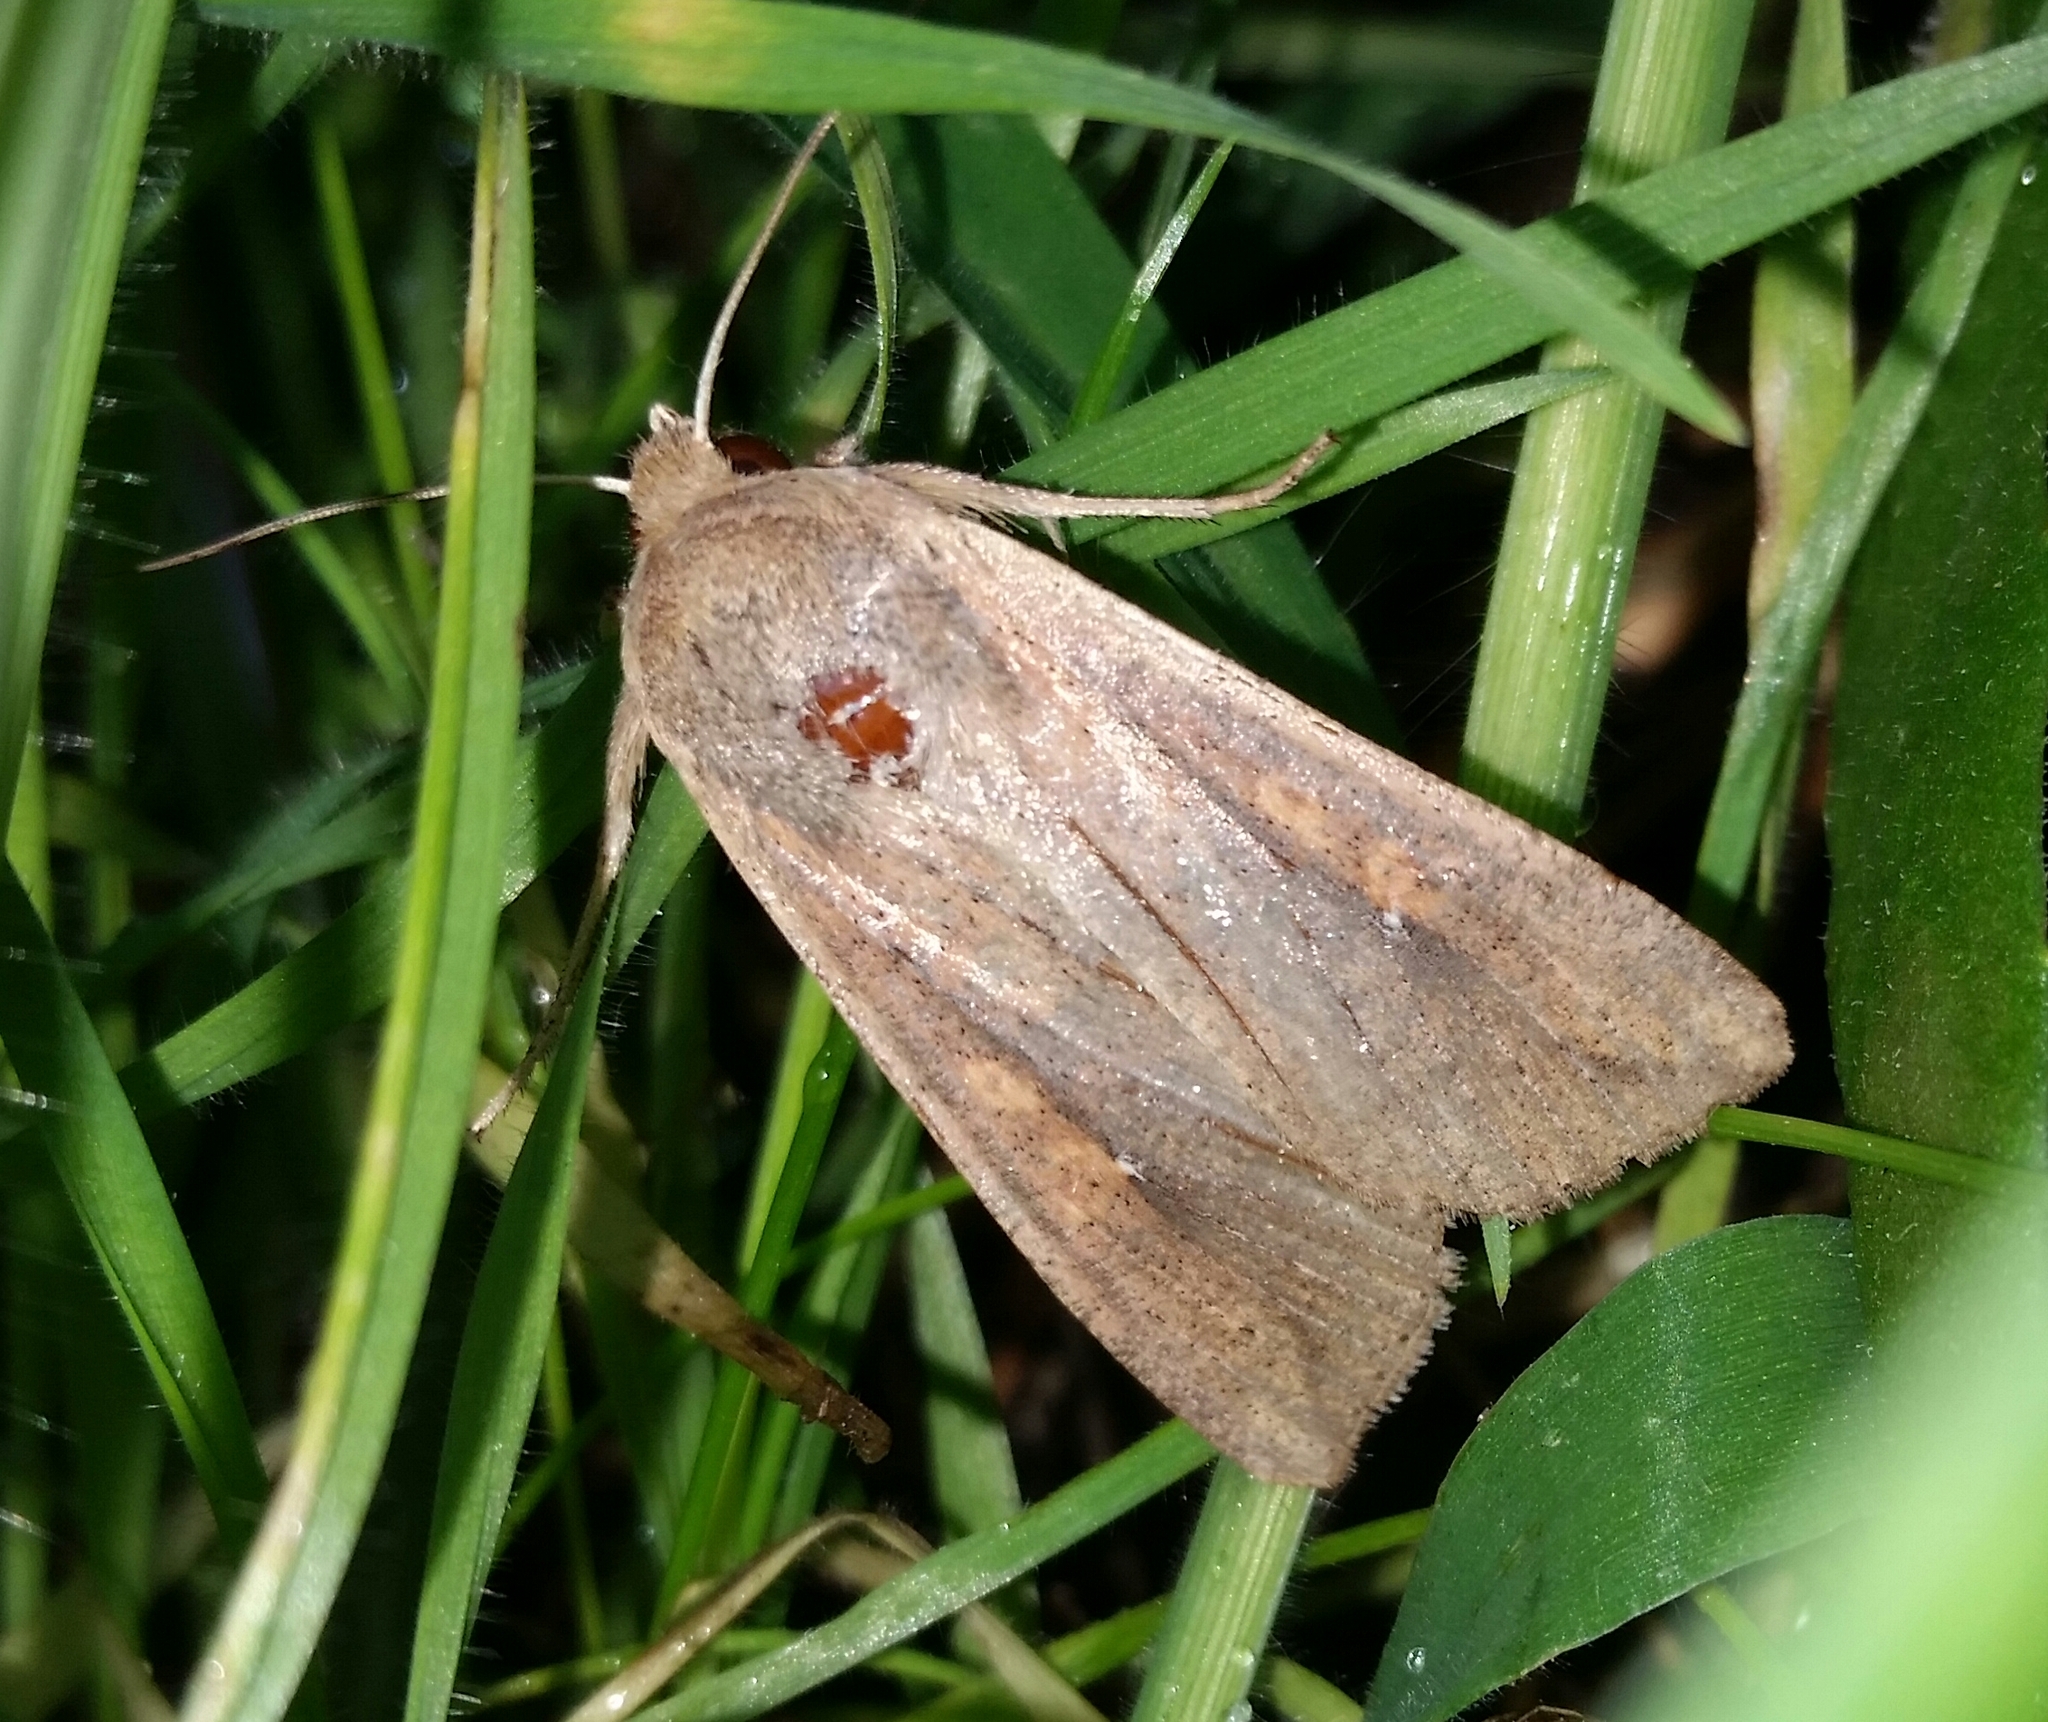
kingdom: Animalia
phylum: Arthropoda
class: Insecta
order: Lepidoptera
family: Noctuidae
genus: Mythimna
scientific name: Mythimna unipuncta
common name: White-speck
